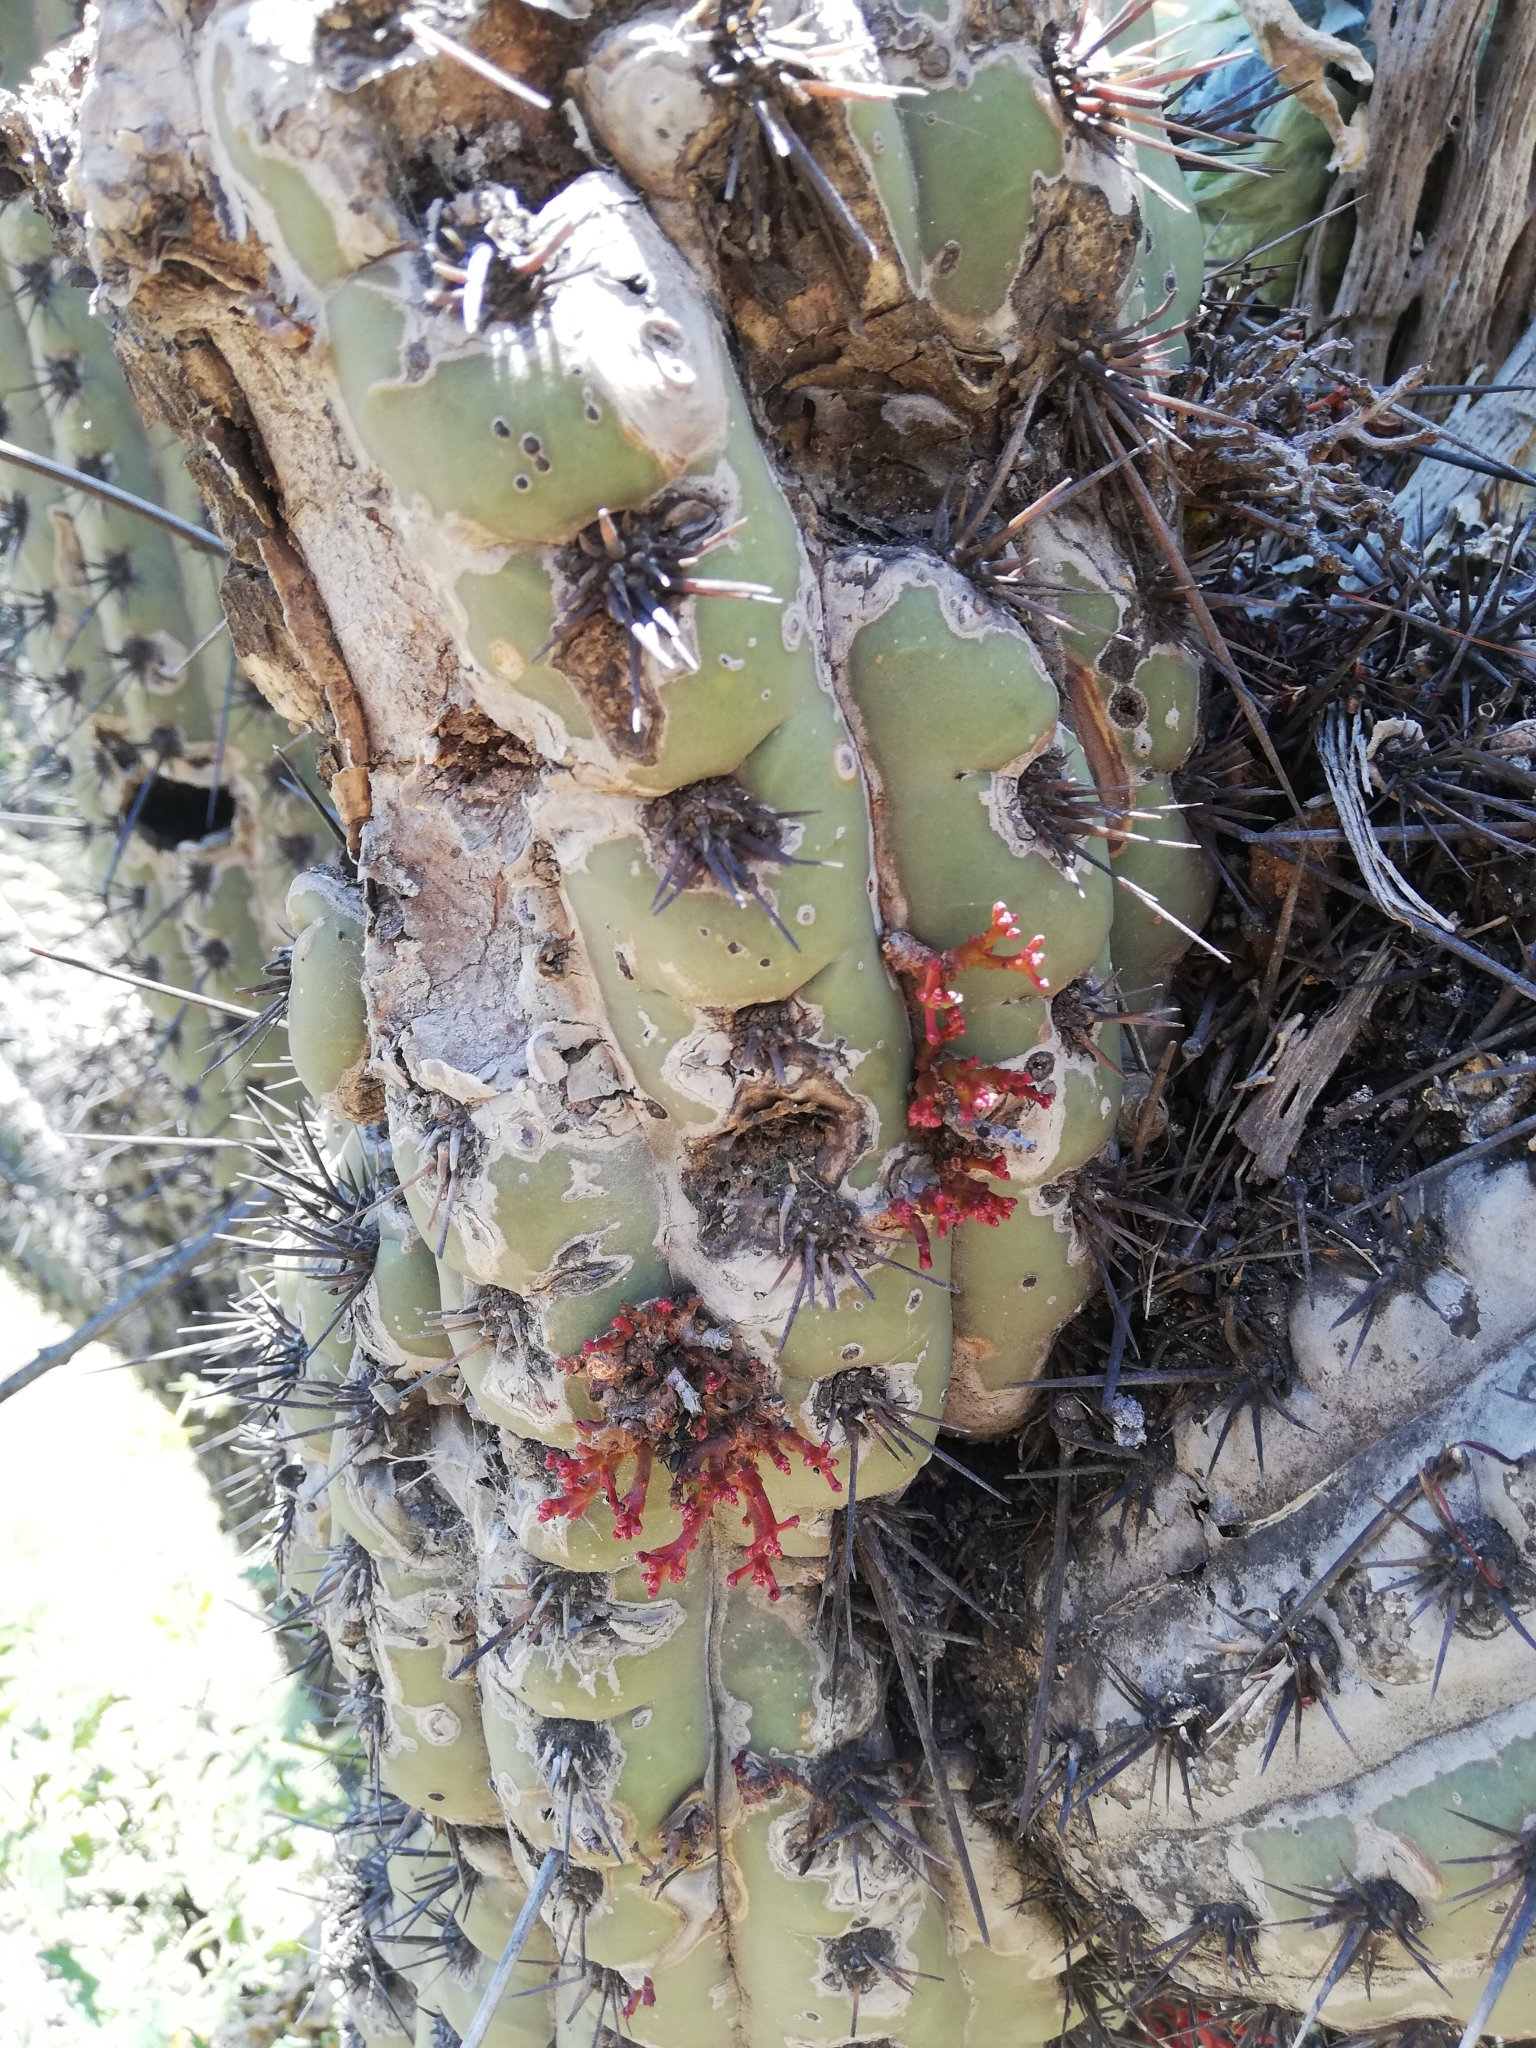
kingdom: Plantae
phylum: Tracheophyta
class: Magnoliopsida
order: Santalales
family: Loranthaceae
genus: Tristerix
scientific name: Tristerix aphyllus
